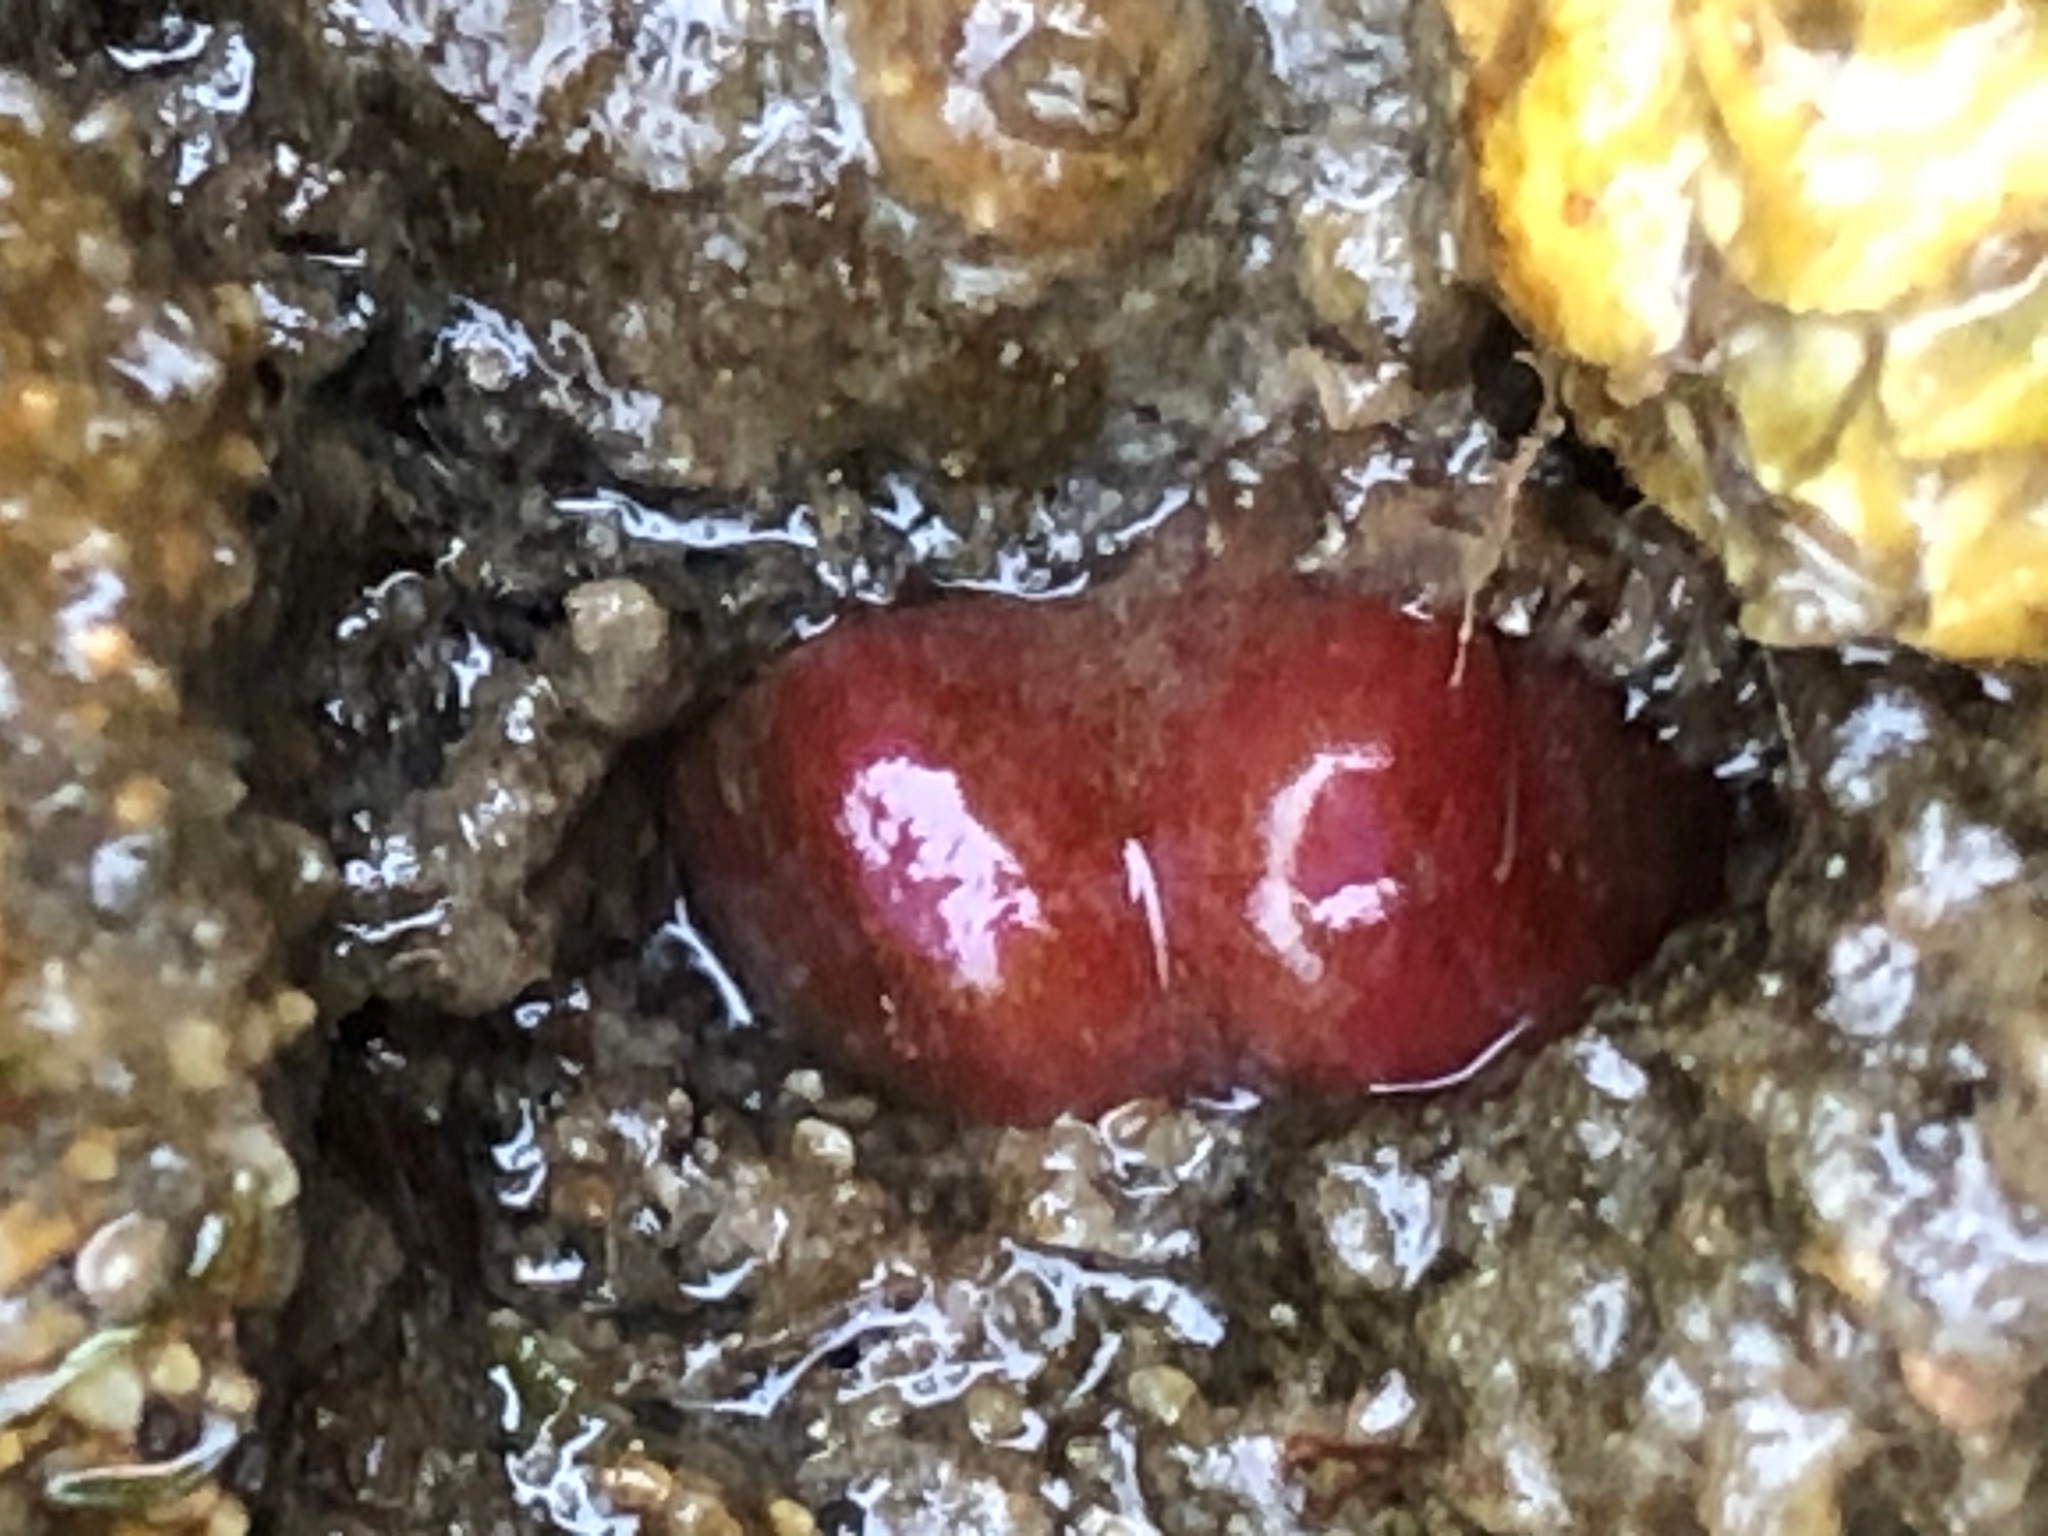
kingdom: Animalia
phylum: Mollusca
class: Bivalvia
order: Adapedonta
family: Hiatellidae
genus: Hiatella
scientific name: Hiatella arctica
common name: Arctic hiatella
